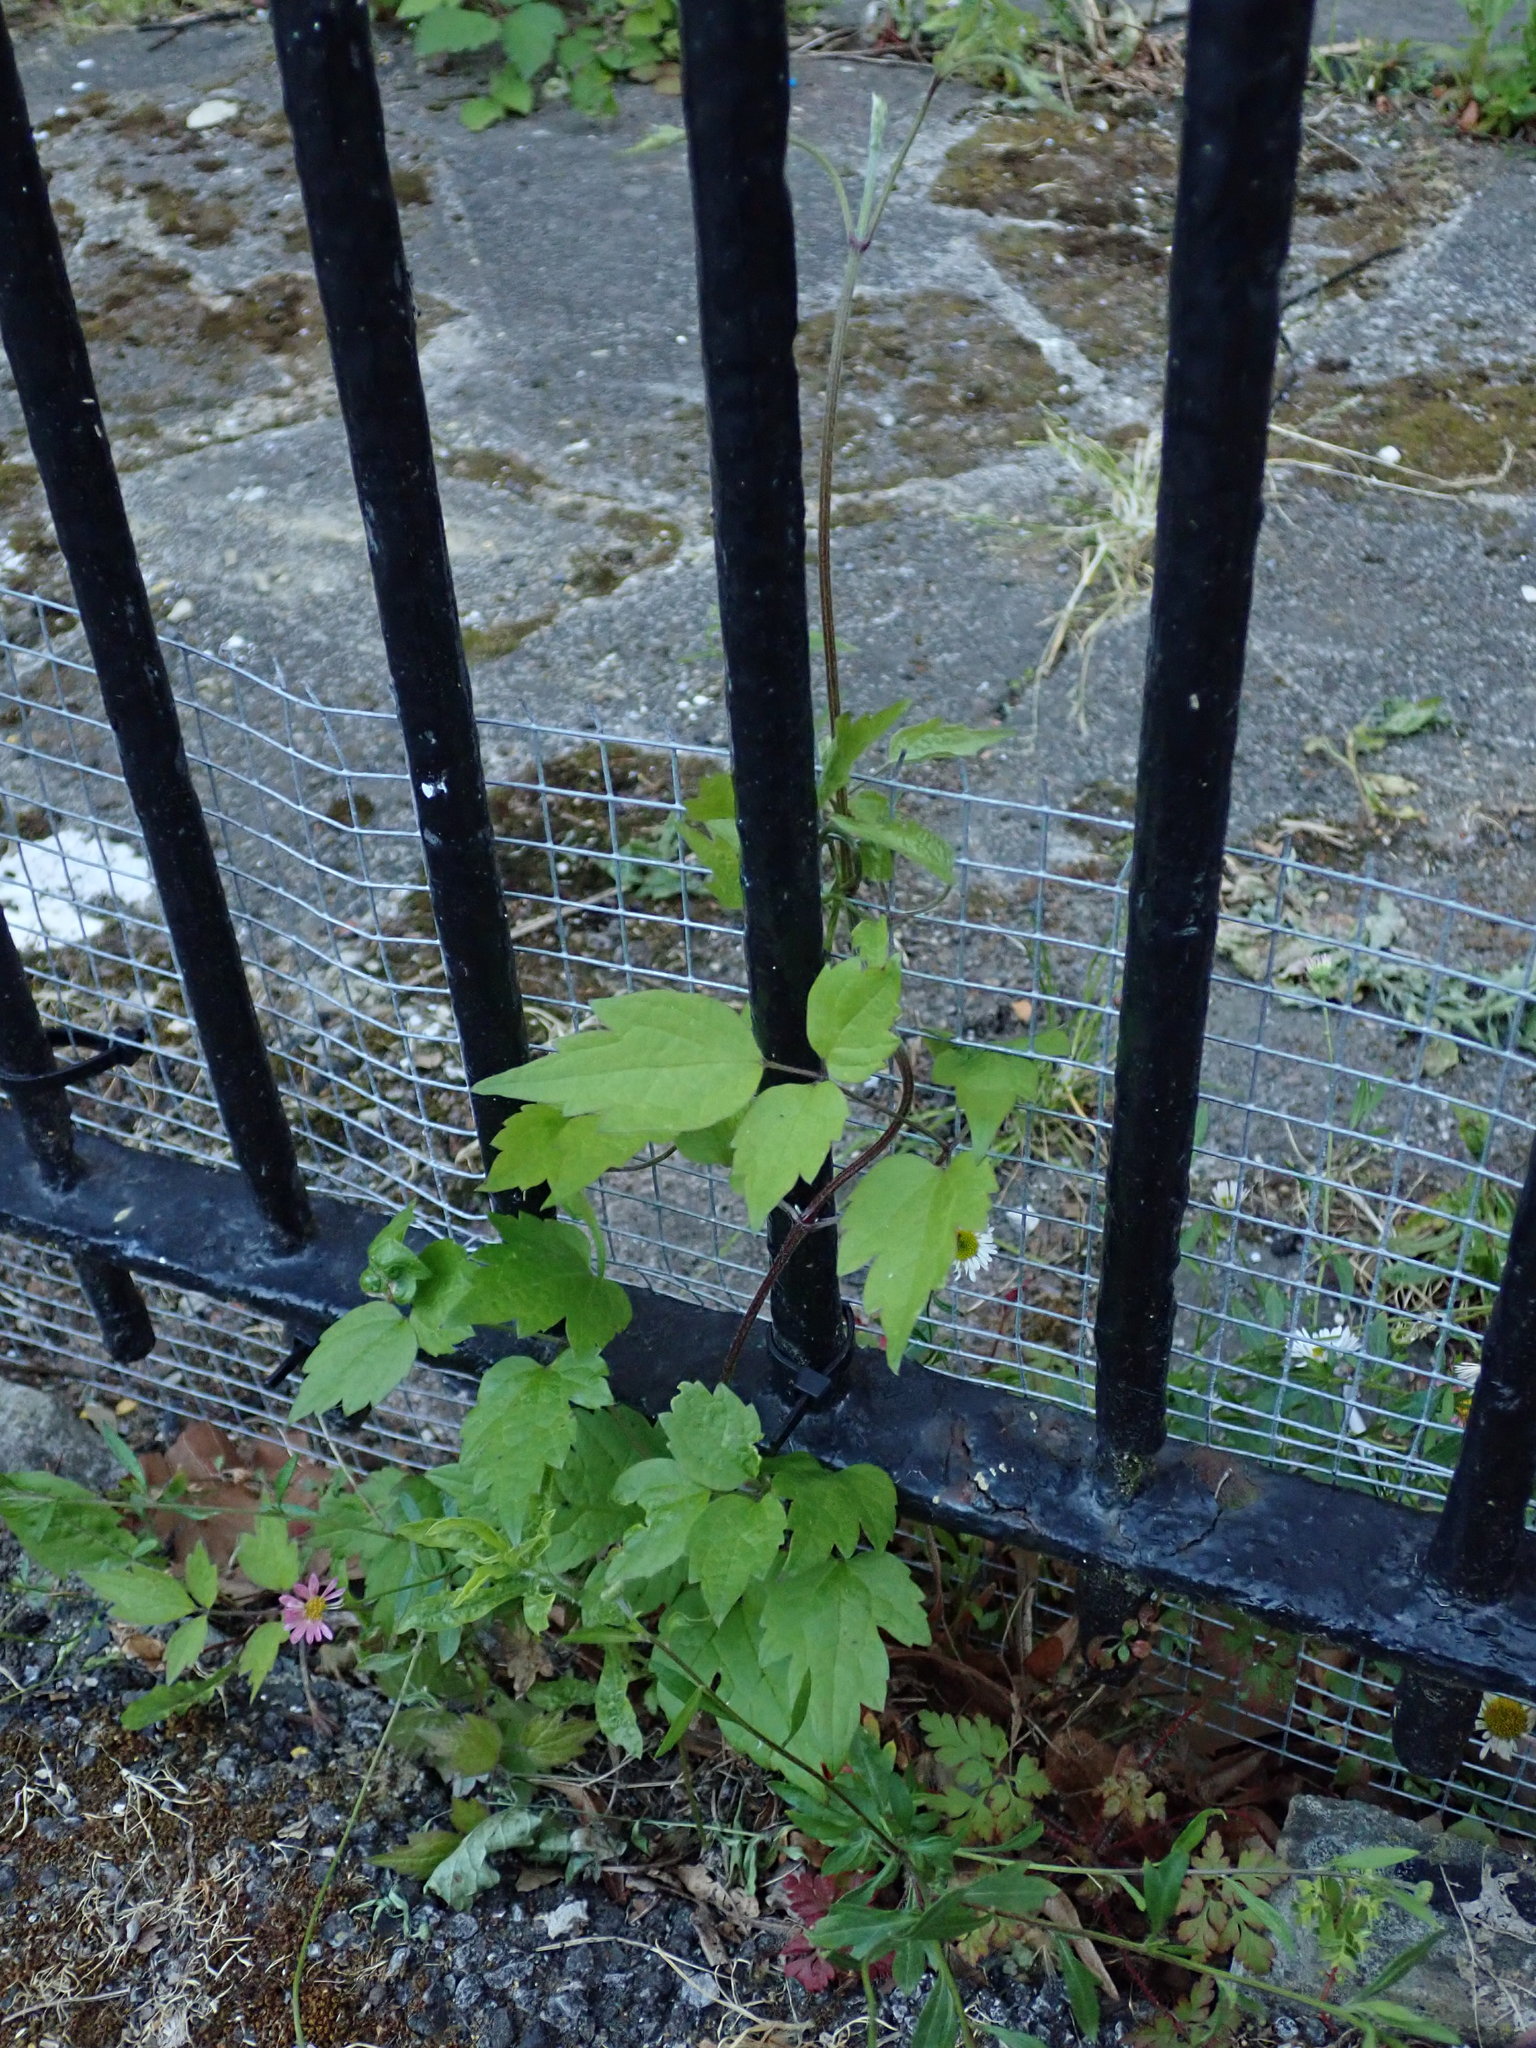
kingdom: Plantae
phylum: Tracheophyta
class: Magnoliopsida
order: Ranunculales
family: Ranunculaceae
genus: Clematis
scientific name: Clematis vitalba
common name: Evergreen clematis
